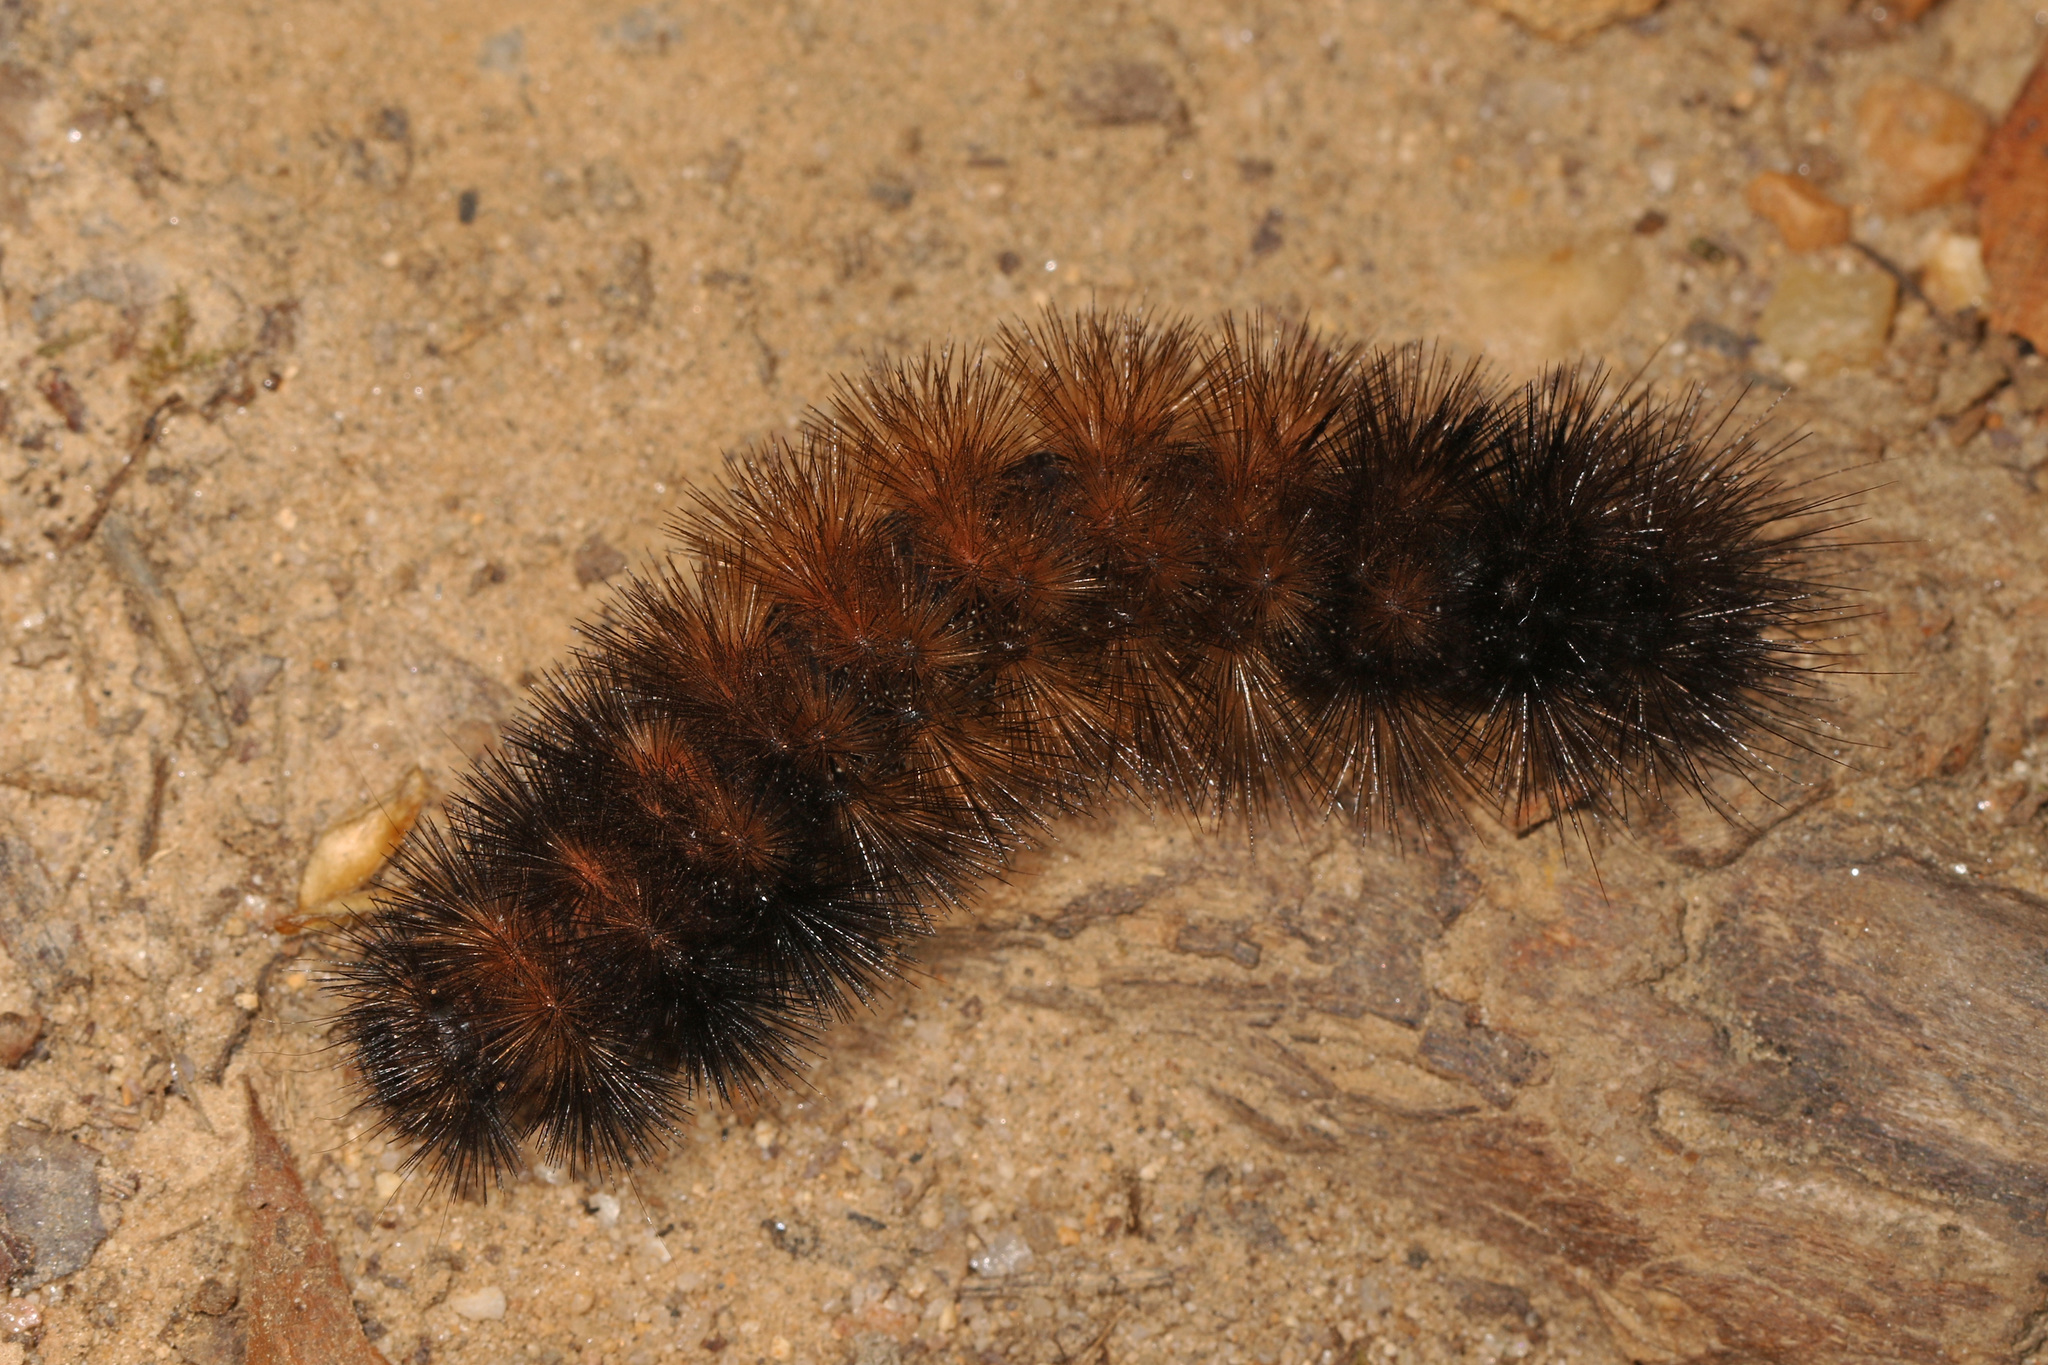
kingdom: Animalia
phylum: Arthropoda
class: Insecta
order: Lepidoptera
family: Erebidae
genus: Pyrrharctia
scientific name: Pyrrharctia isabella
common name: Isabella tiger moth
